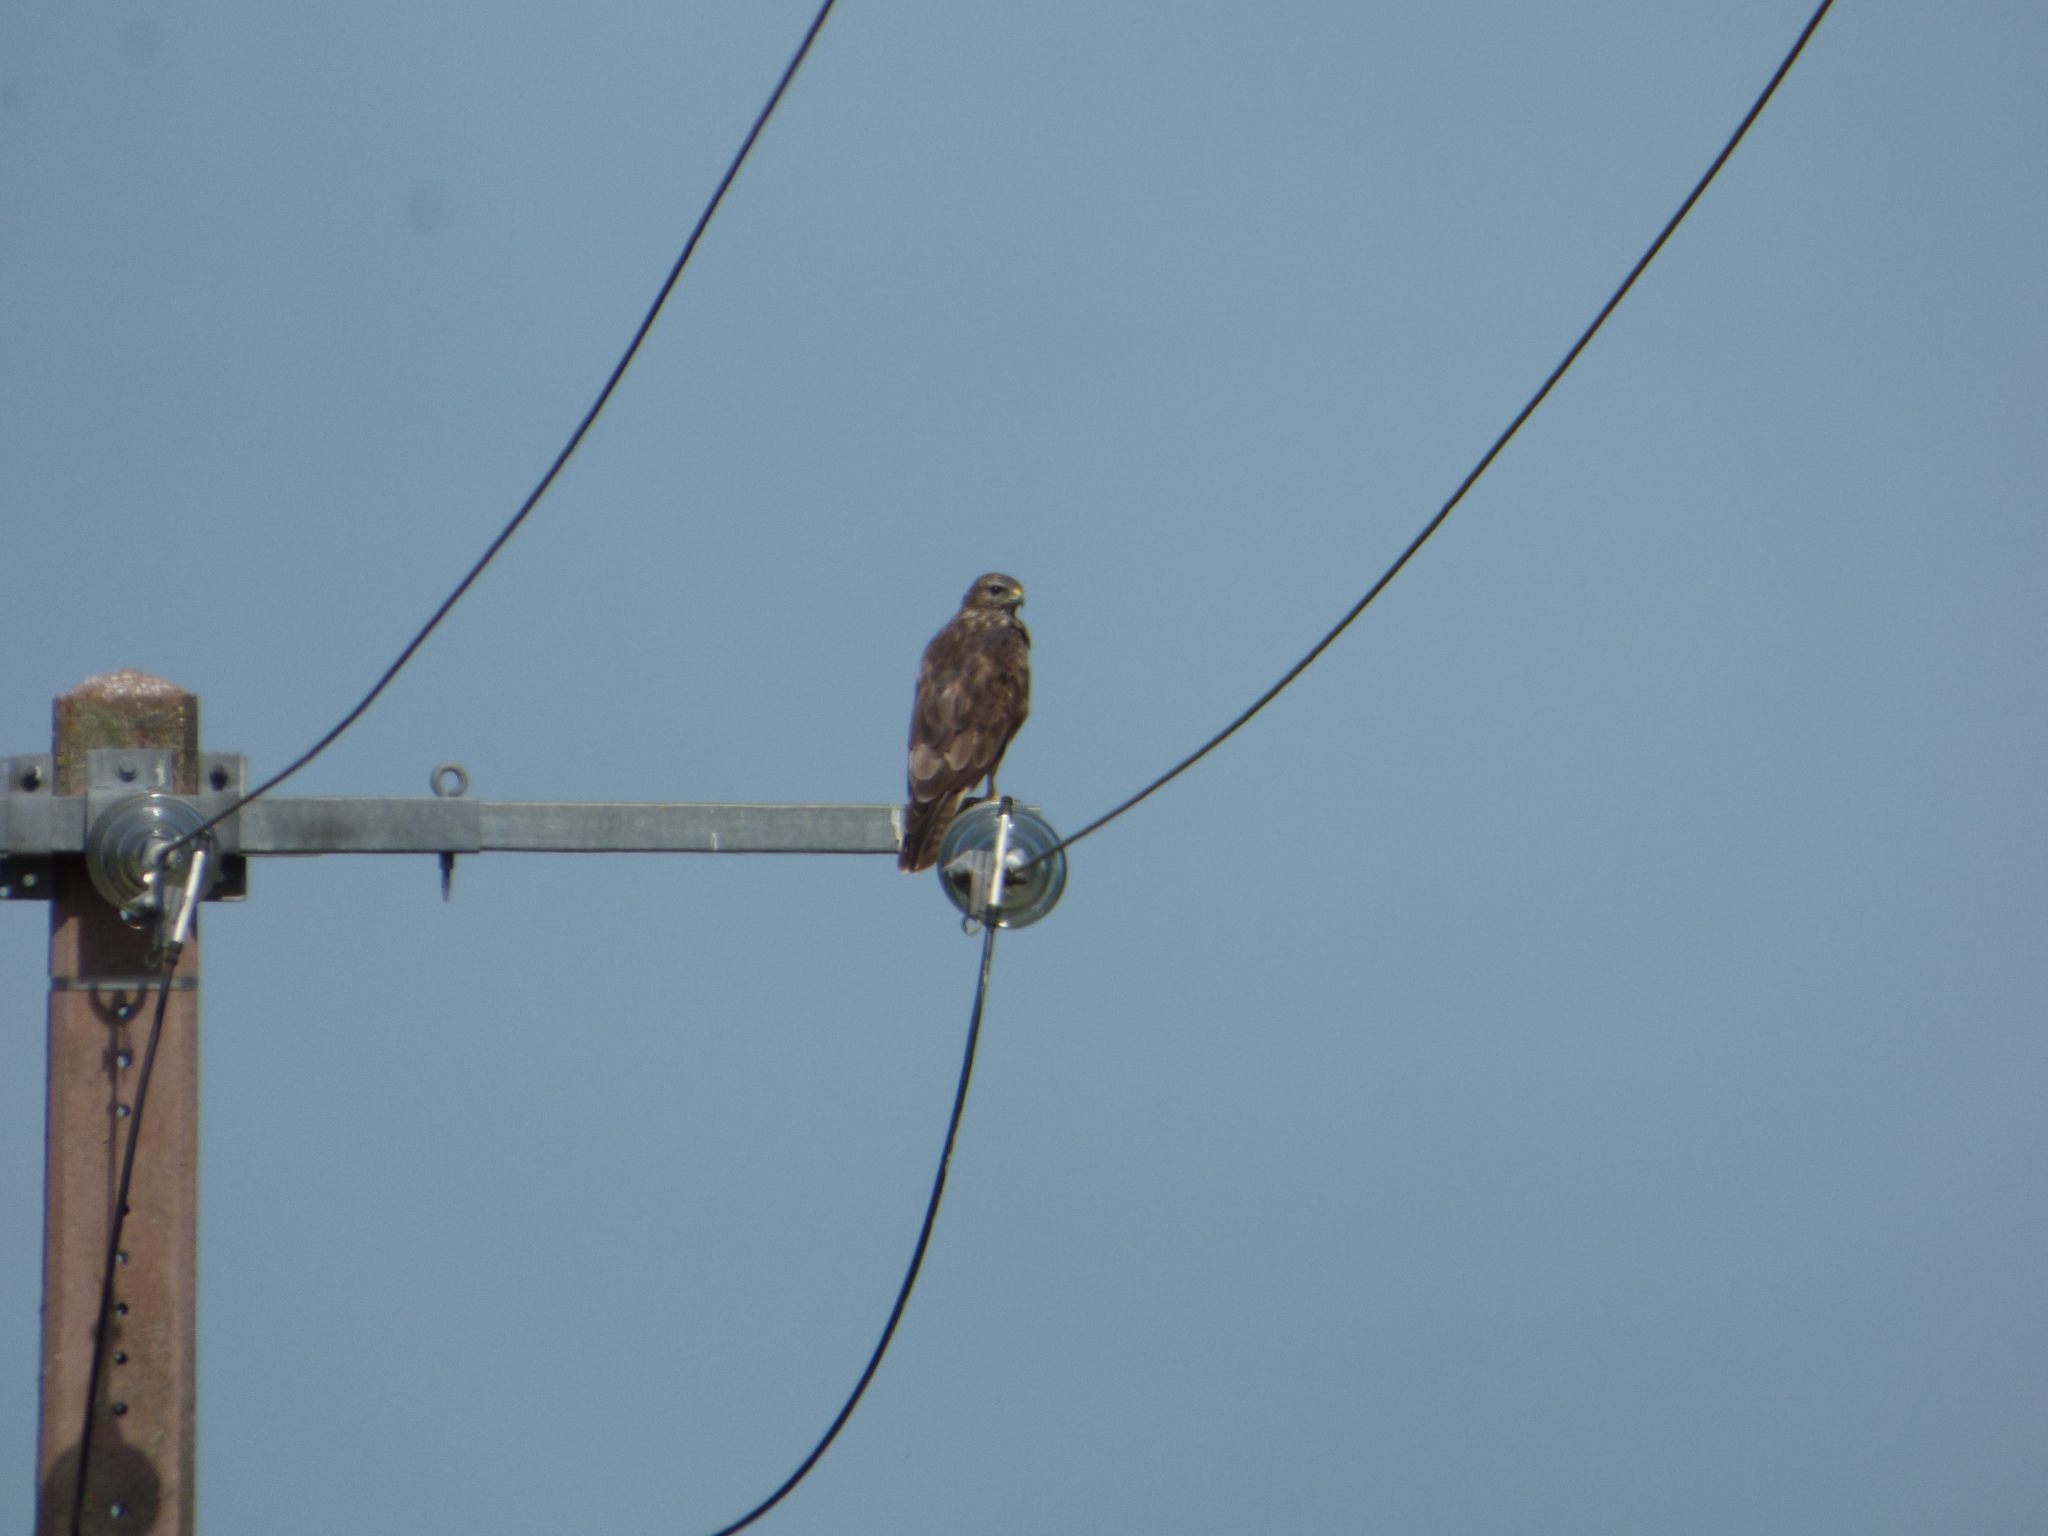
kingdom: Animalia
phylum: Chordata
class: Aves
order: Accipitriformes
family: Accipitridae
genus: Buteo
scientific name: Buteo buteo
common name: Common buzzard
